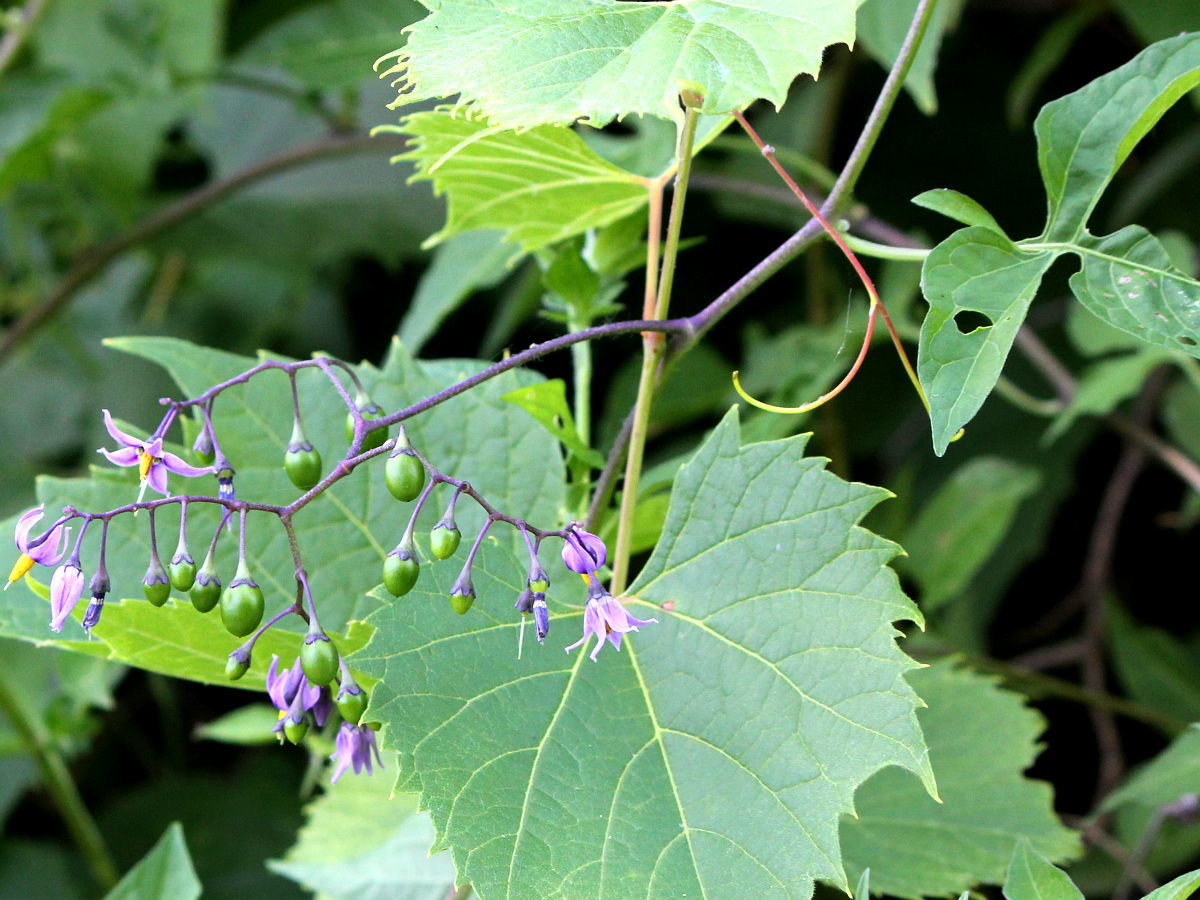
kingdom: Plantae
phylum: Tracheophyta
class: Magnoliopsida
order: Solanales
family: Solanaceae
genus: Solanum
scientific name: Solanum dulcamara
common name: Climbing nightshade
